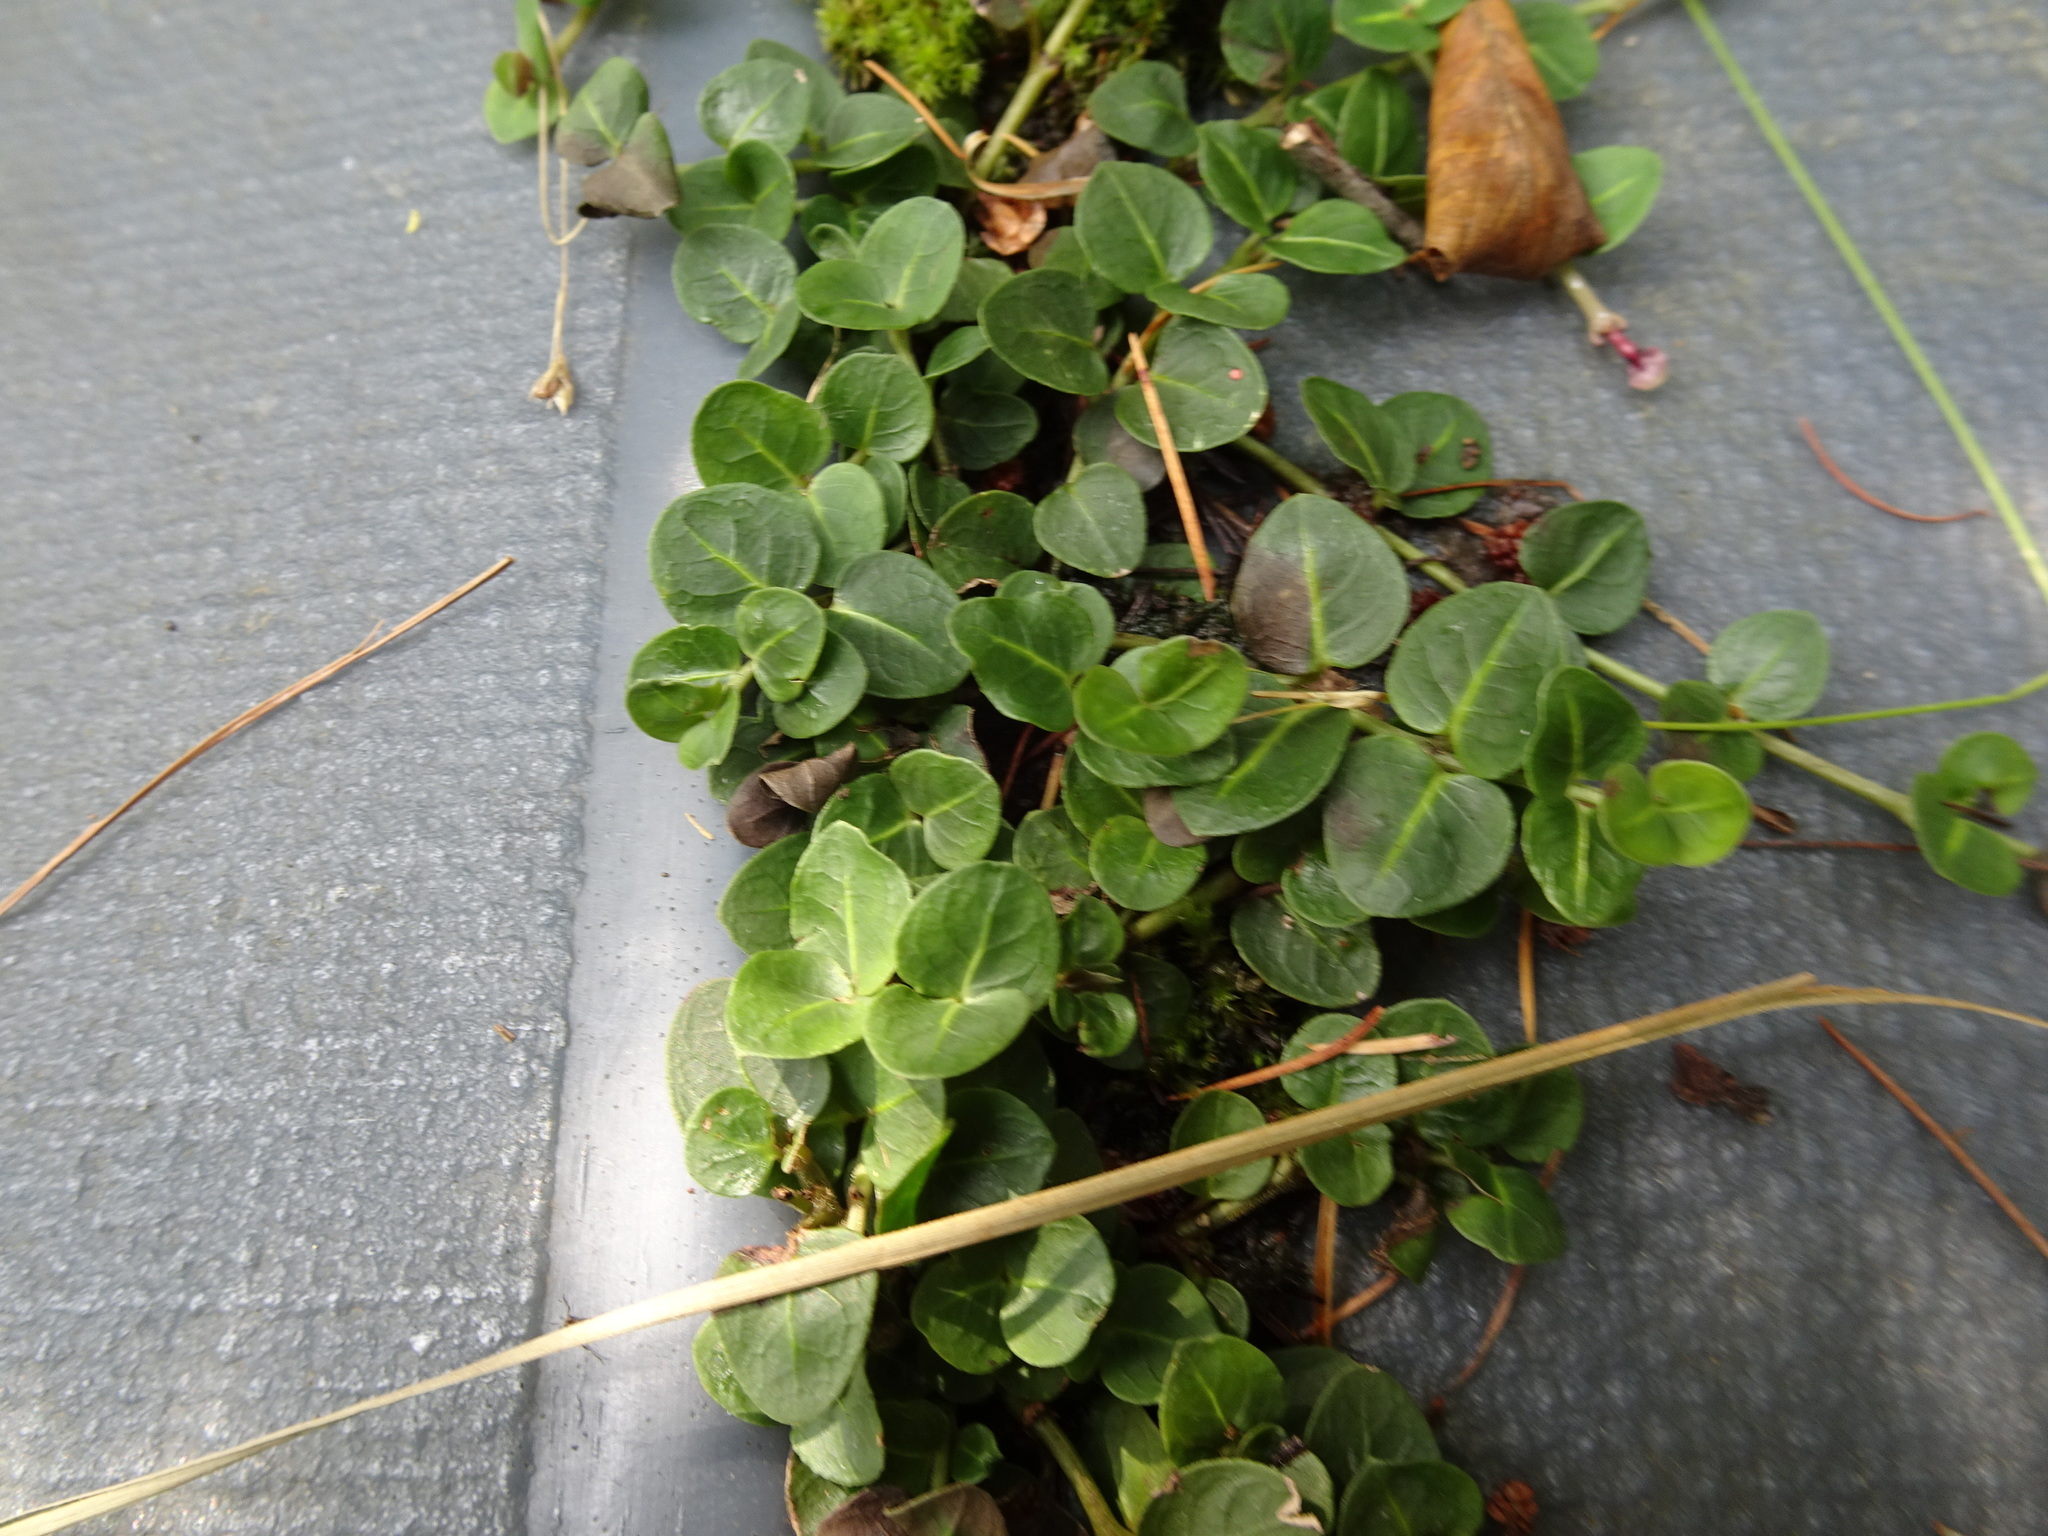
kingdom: Plantae
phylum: Tracheophyta
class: Magnoliopsida
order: Gentianales
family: Rubiaceae
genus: Mitchella
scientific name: Mitchella repens
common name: Partridge-berry
